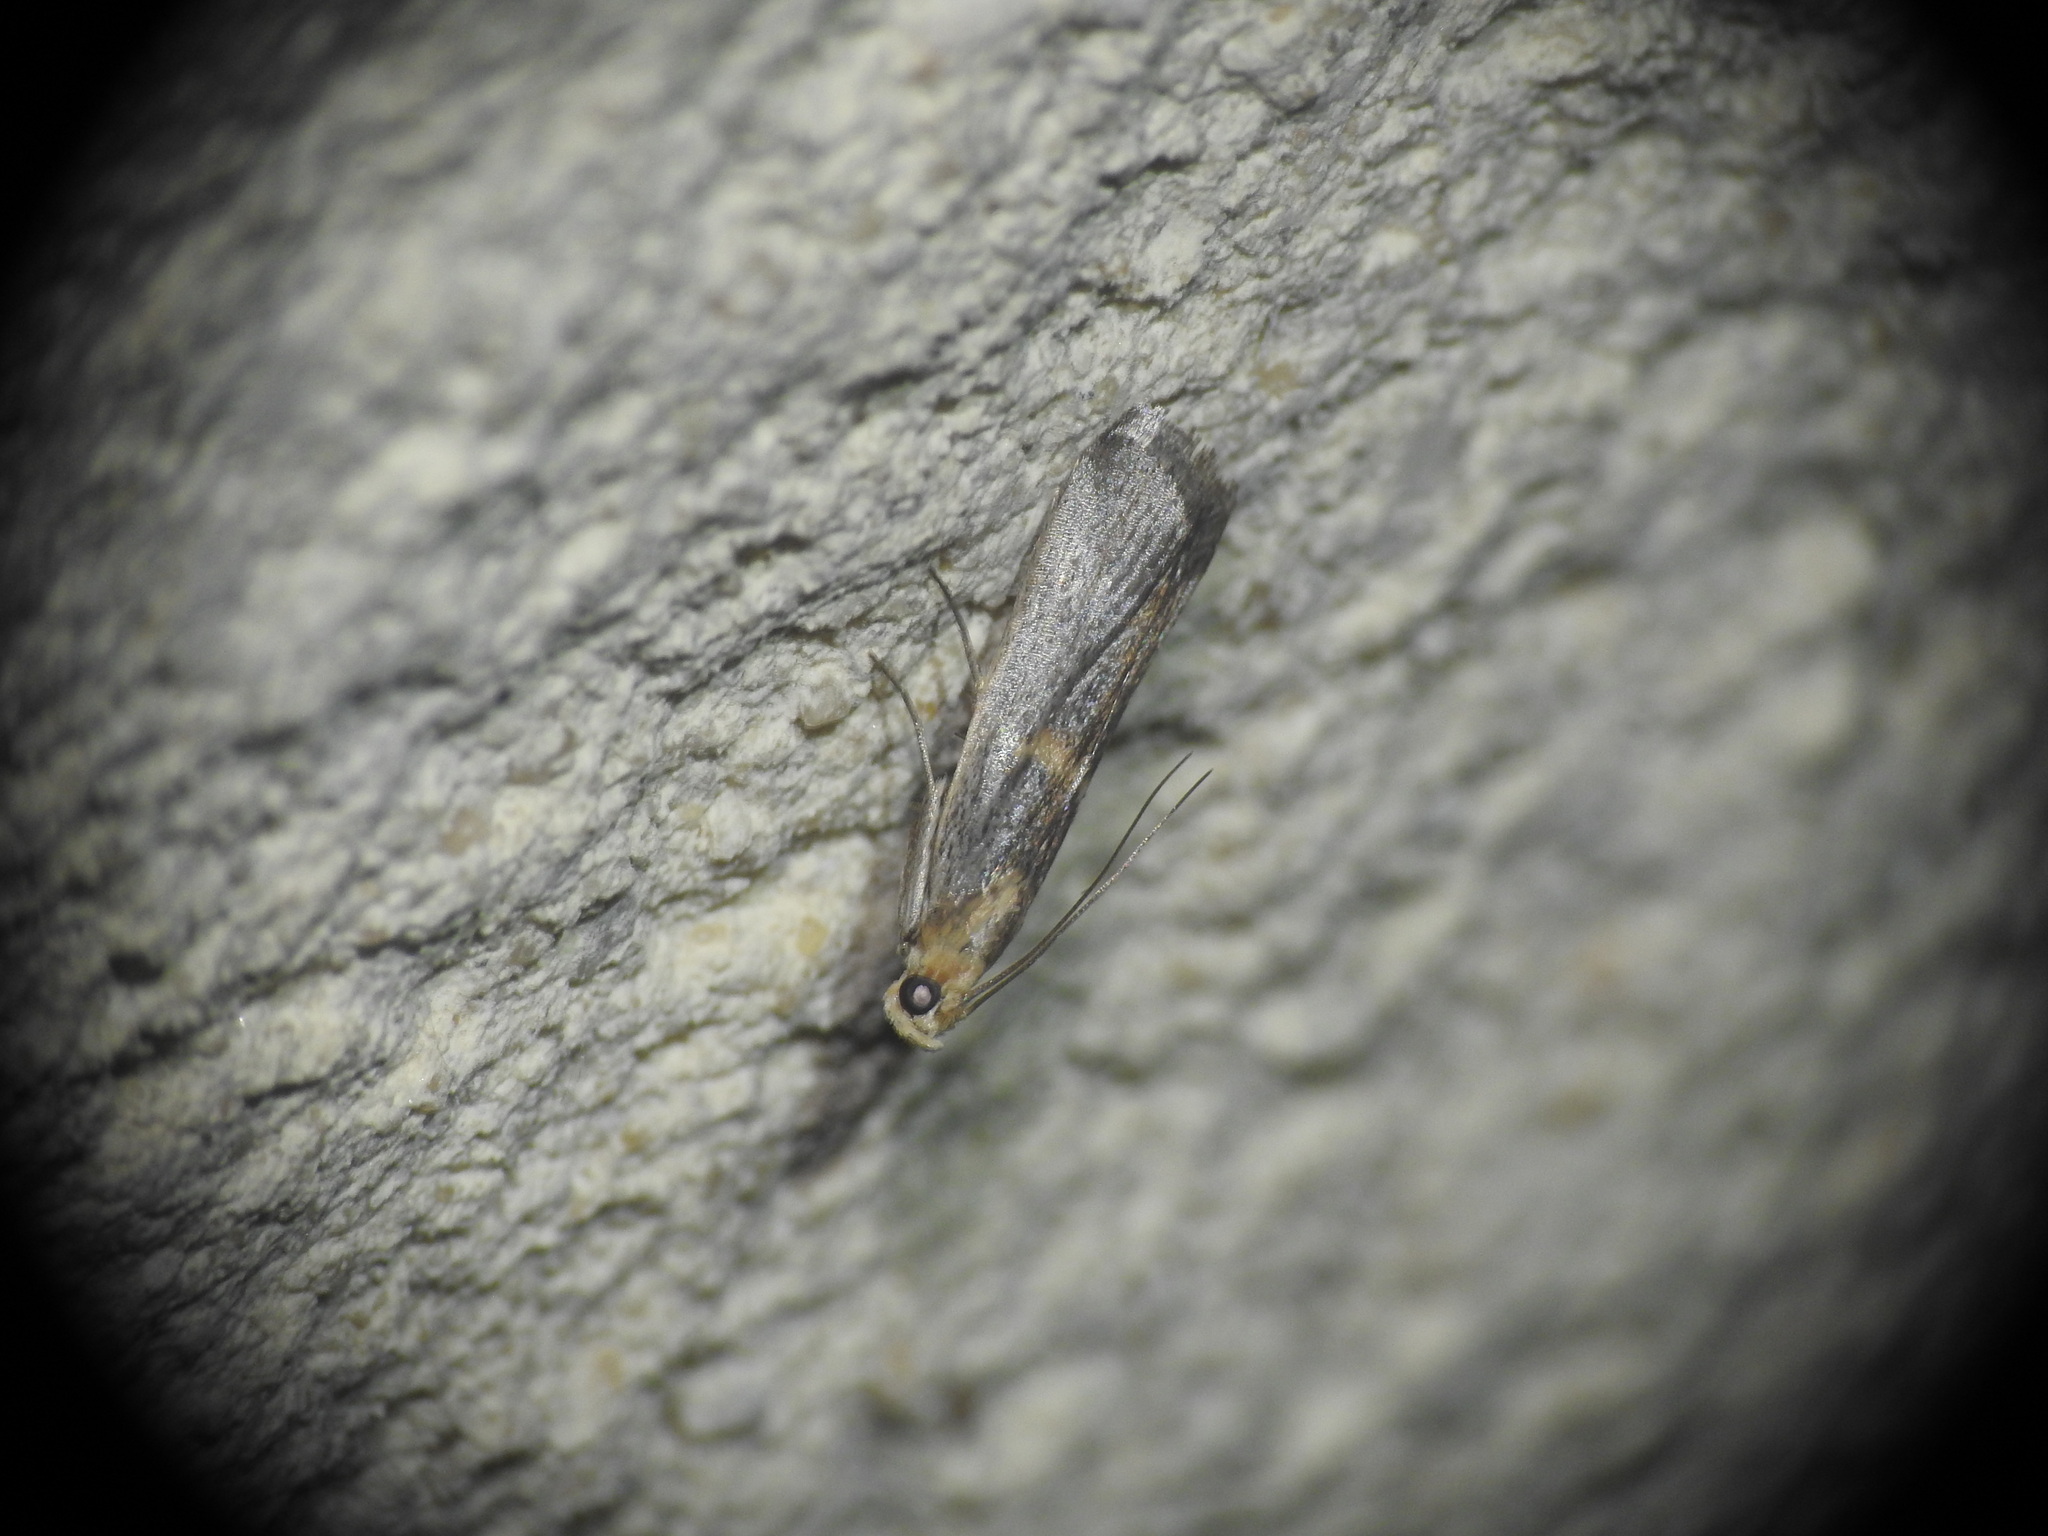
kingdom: Animalia
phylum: Arthropoda
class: Insecta
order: Lepidoptera
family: Pyralidae
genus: Oxybia
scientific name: Oxybia transversella
